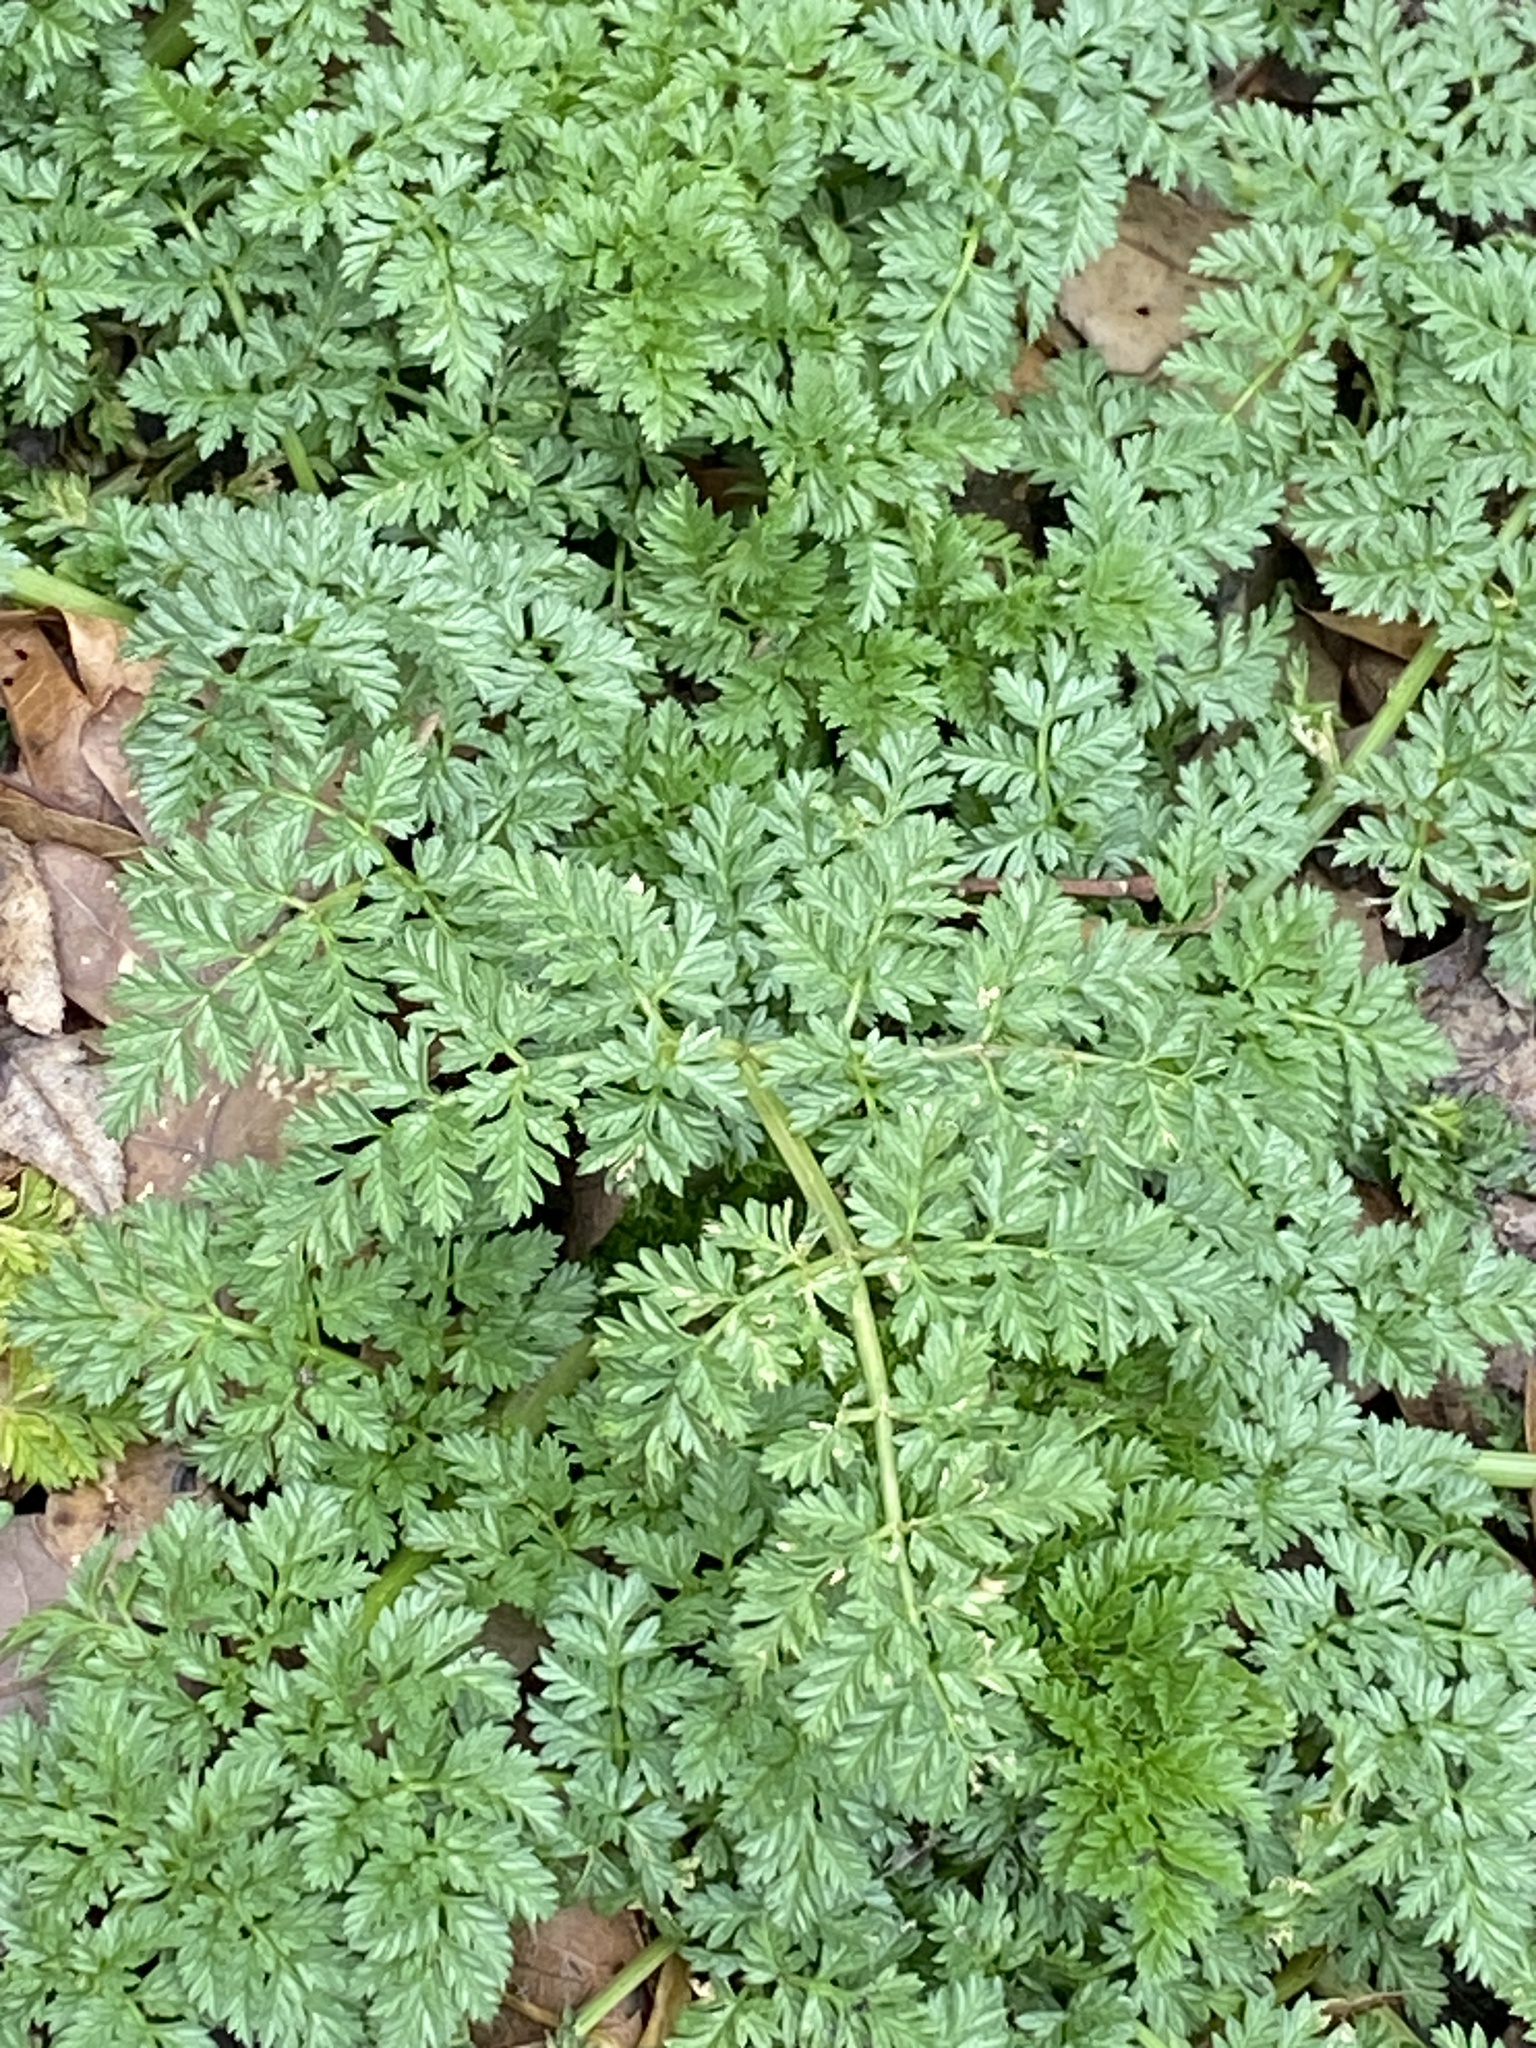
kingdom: Plantae
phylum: Tracheophyta
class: Magnoliopsida
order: Apiales
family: Apiaceae
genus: Conium
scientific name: Conium maculatum
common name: Hemlock
